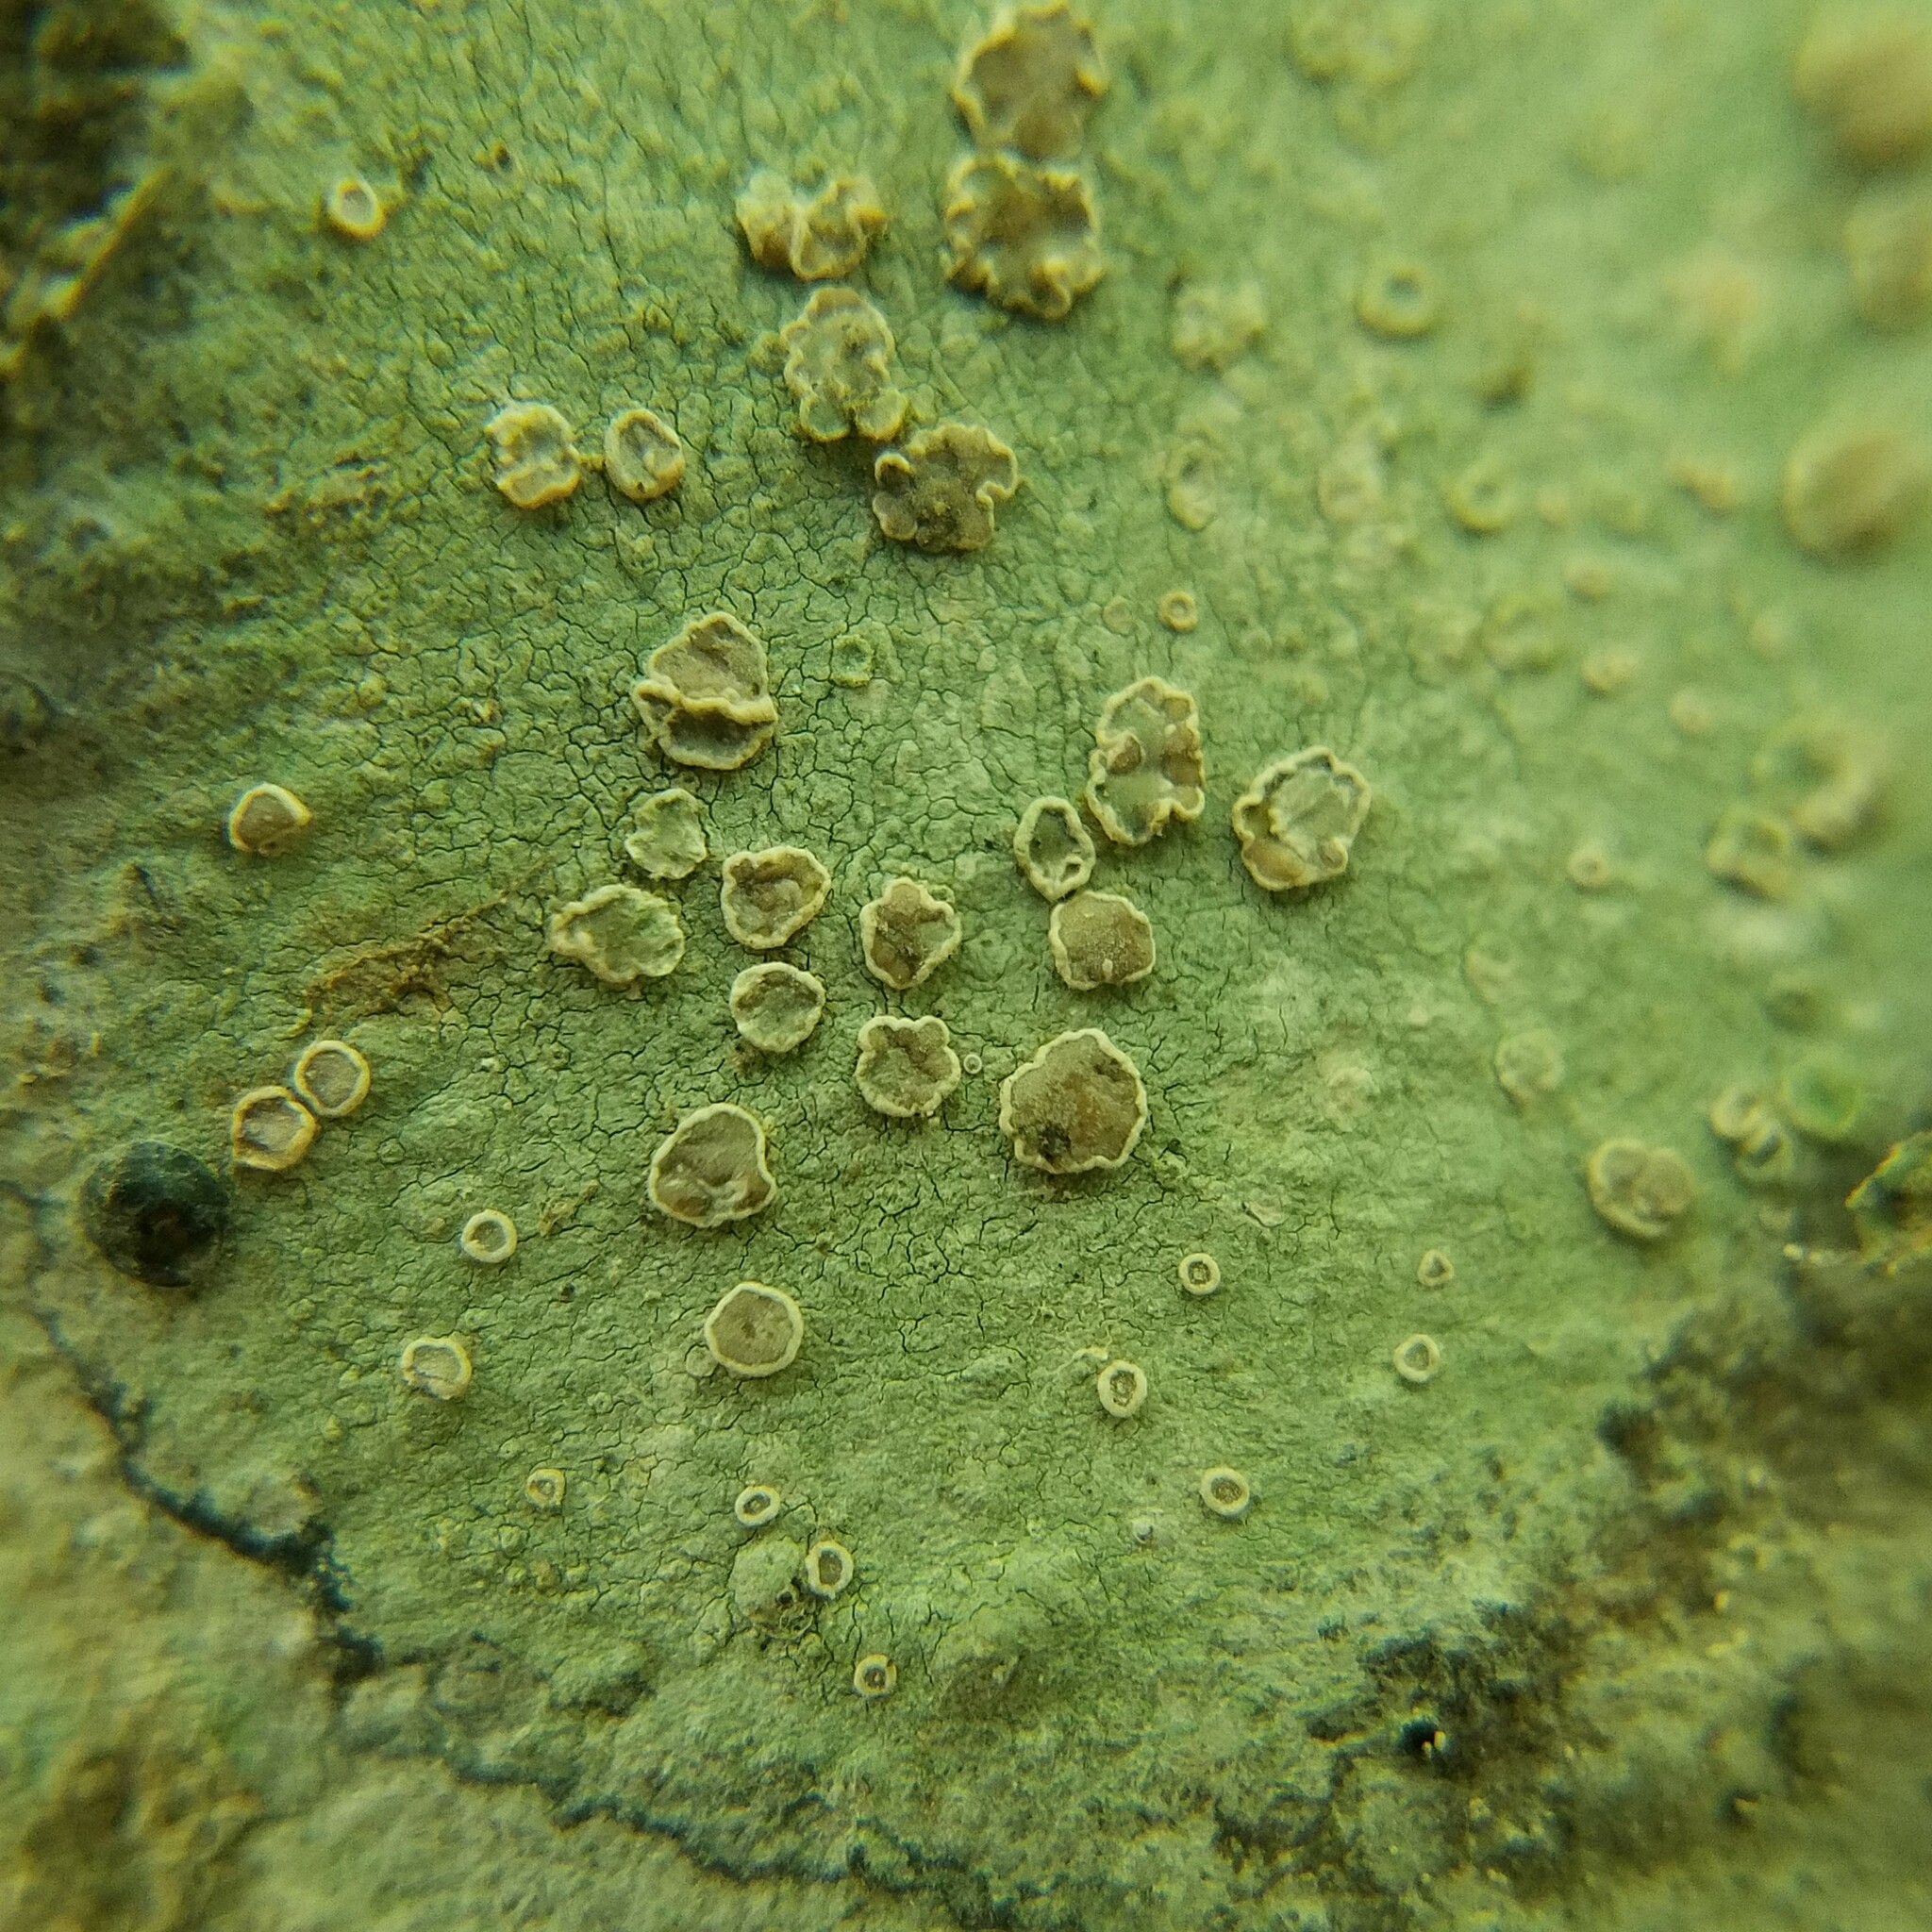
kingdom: Fungi
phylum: Ascomycota
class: Lecanoromycetes
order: Lecanorales
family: Lecanoraceae
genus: Lecanora
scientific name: Lecanora protervula
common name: Lesser dust my discs
